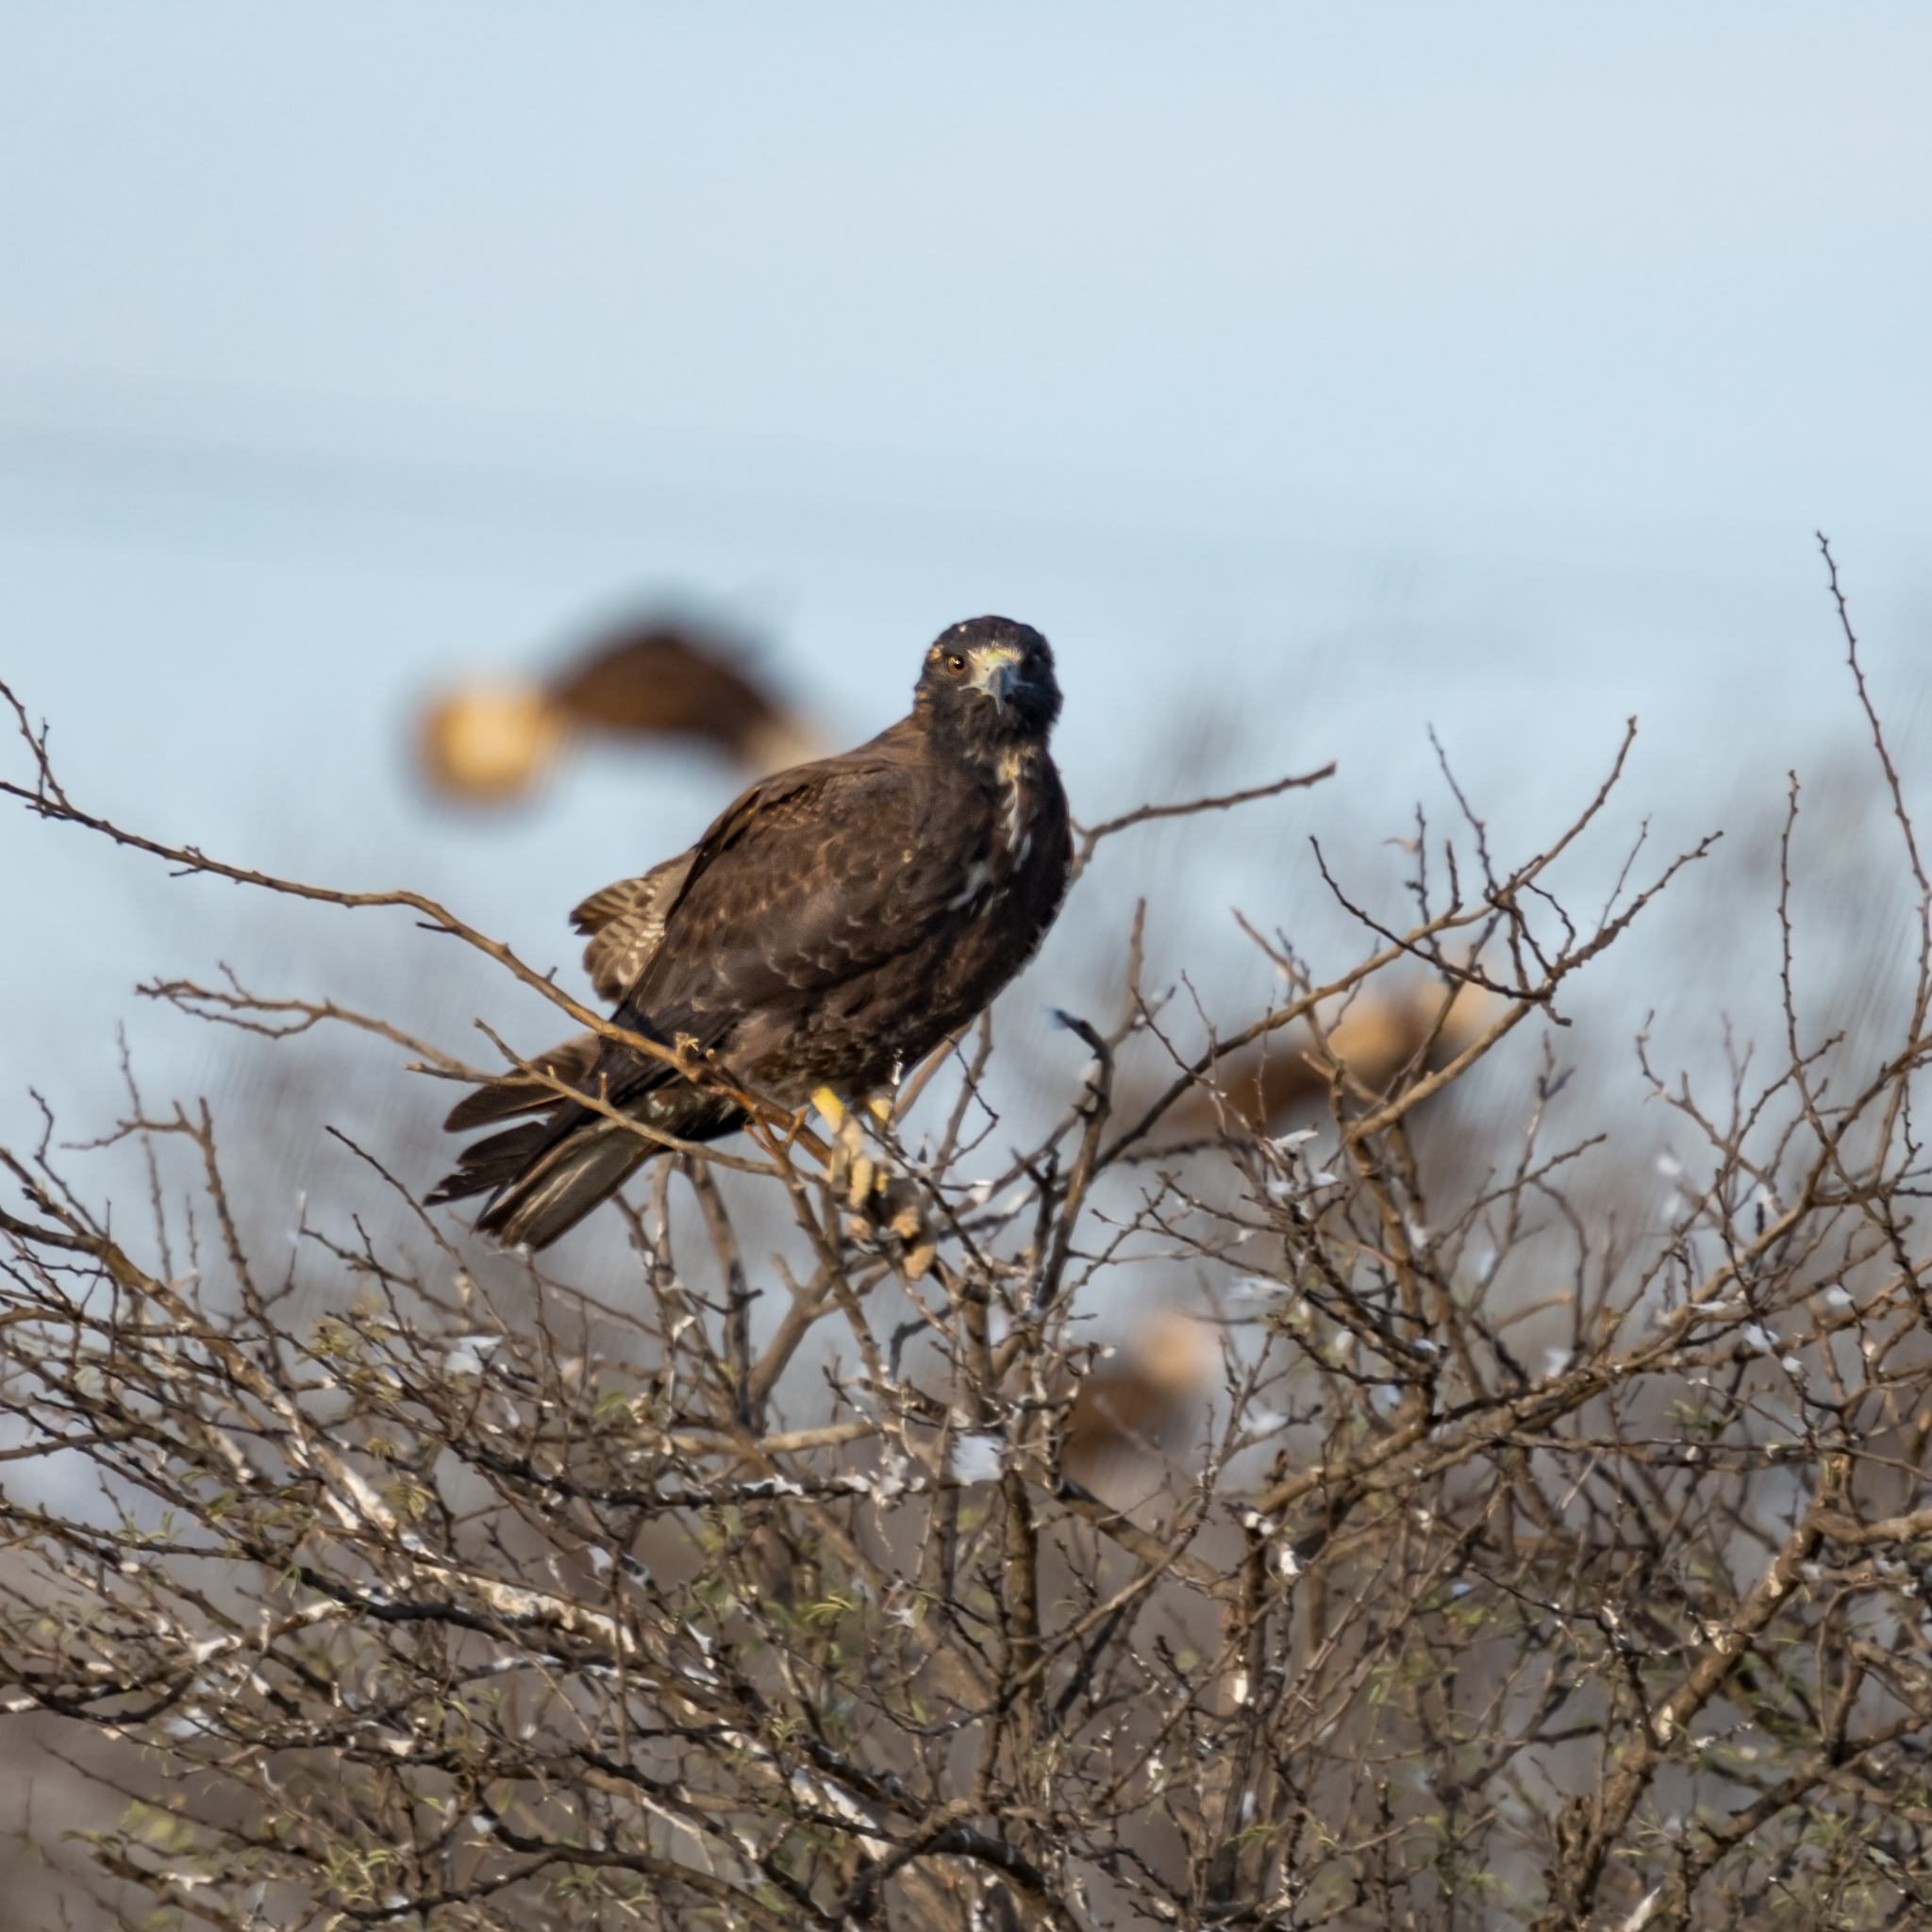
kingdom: Animalia
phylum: Chordata
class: Aves
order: Accipitriformes
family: Accipitridae
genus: Buteo
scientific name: Buteo albicaudatus
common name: White-tailed hawk
